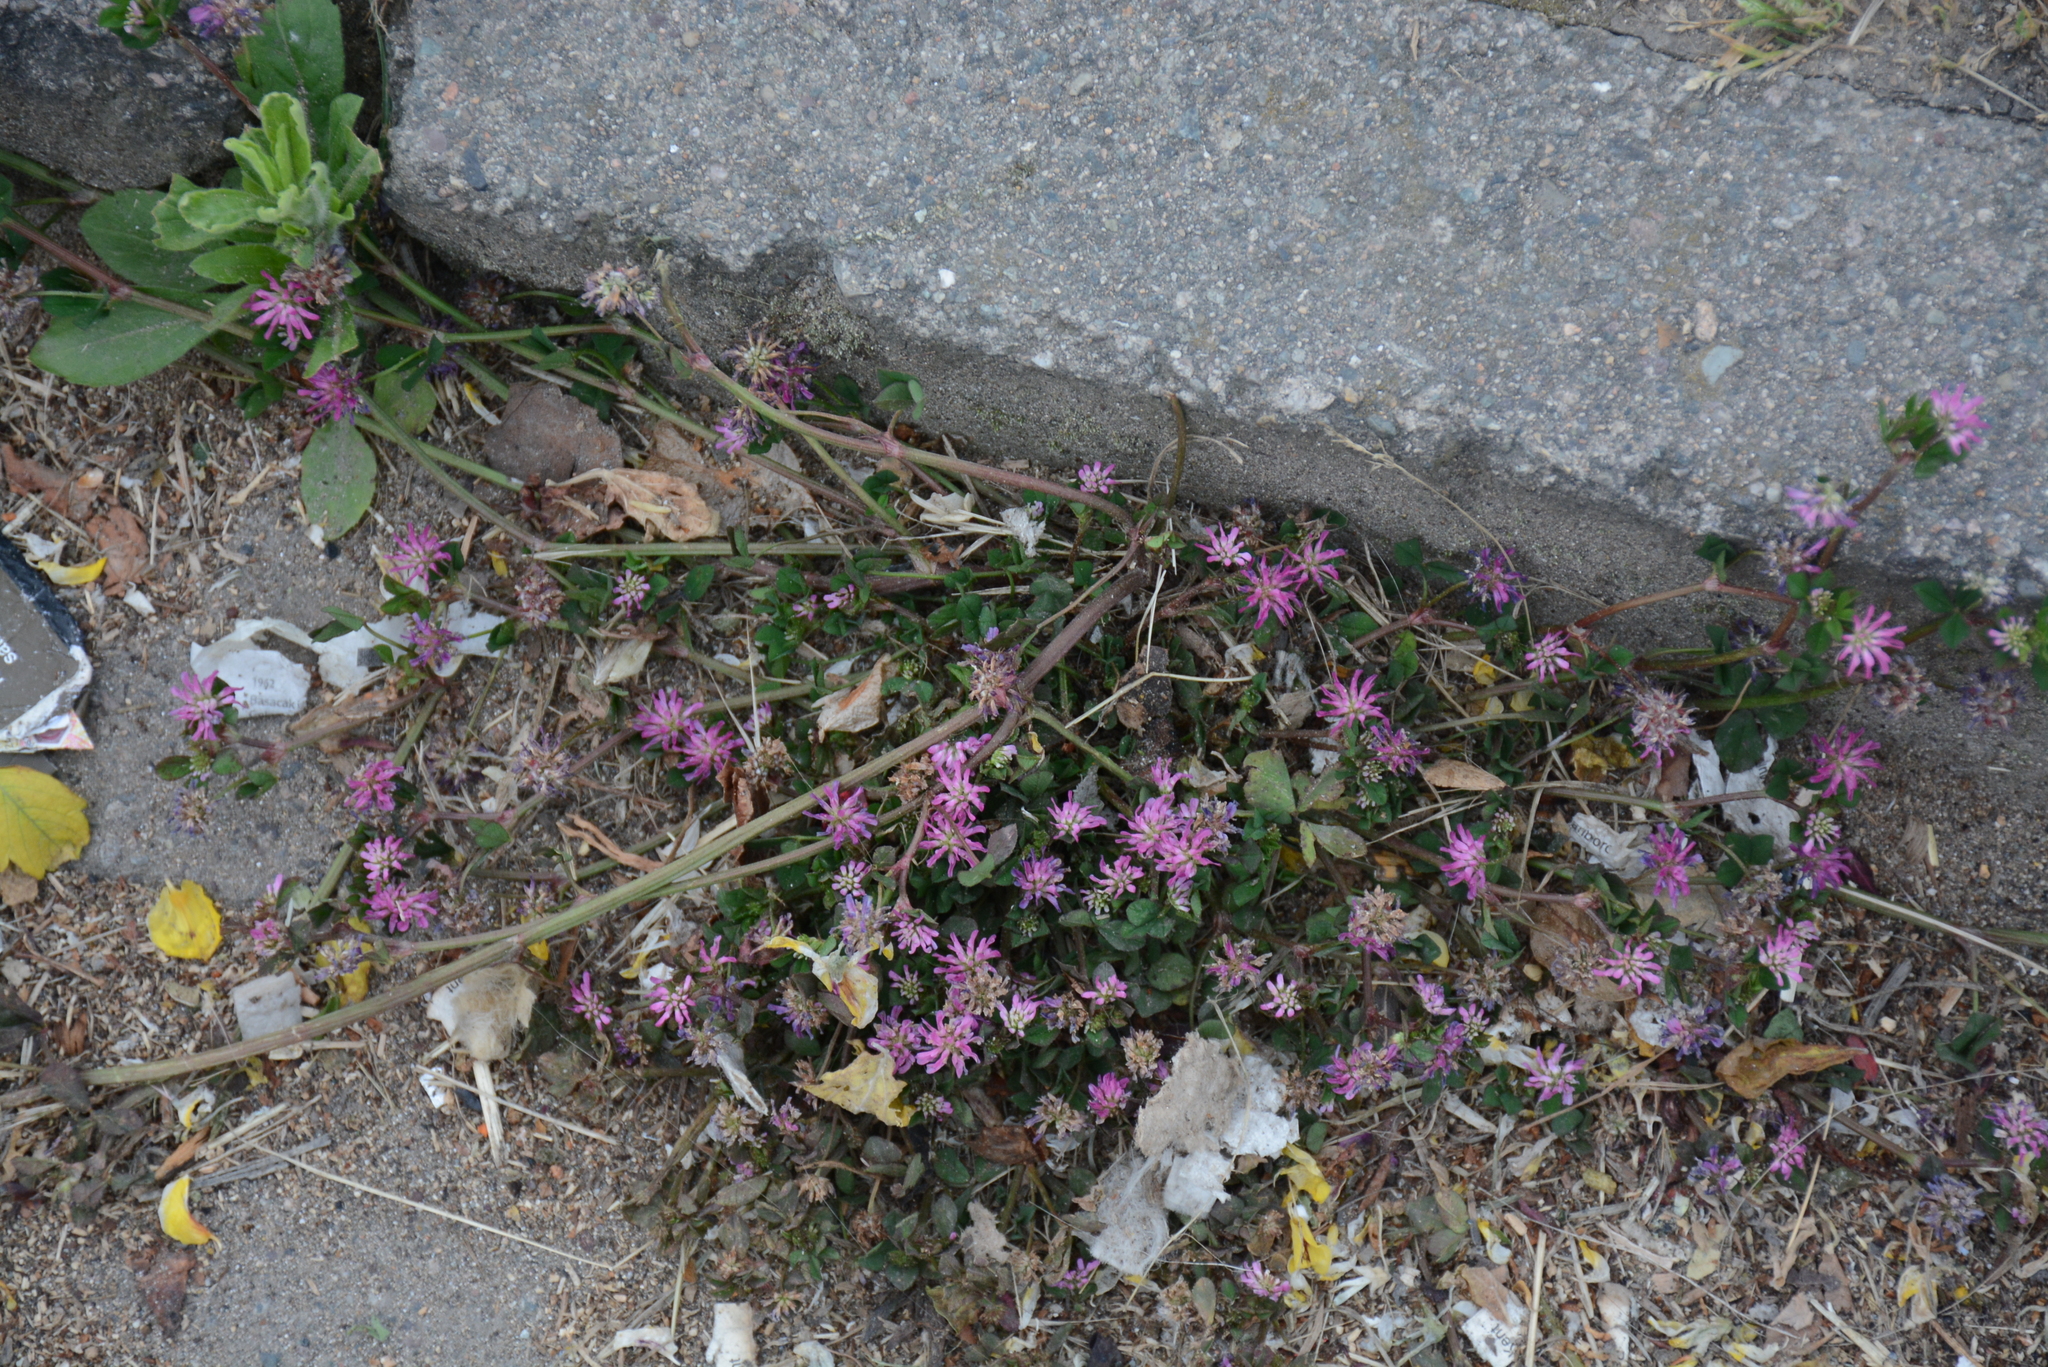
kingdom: Plantae
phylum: Tracheophyta
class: Magnoliopsida
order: Fabales
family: Fabaceae
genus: Trifolium
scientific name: Trifolium resupinatum
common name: Reversed clover
